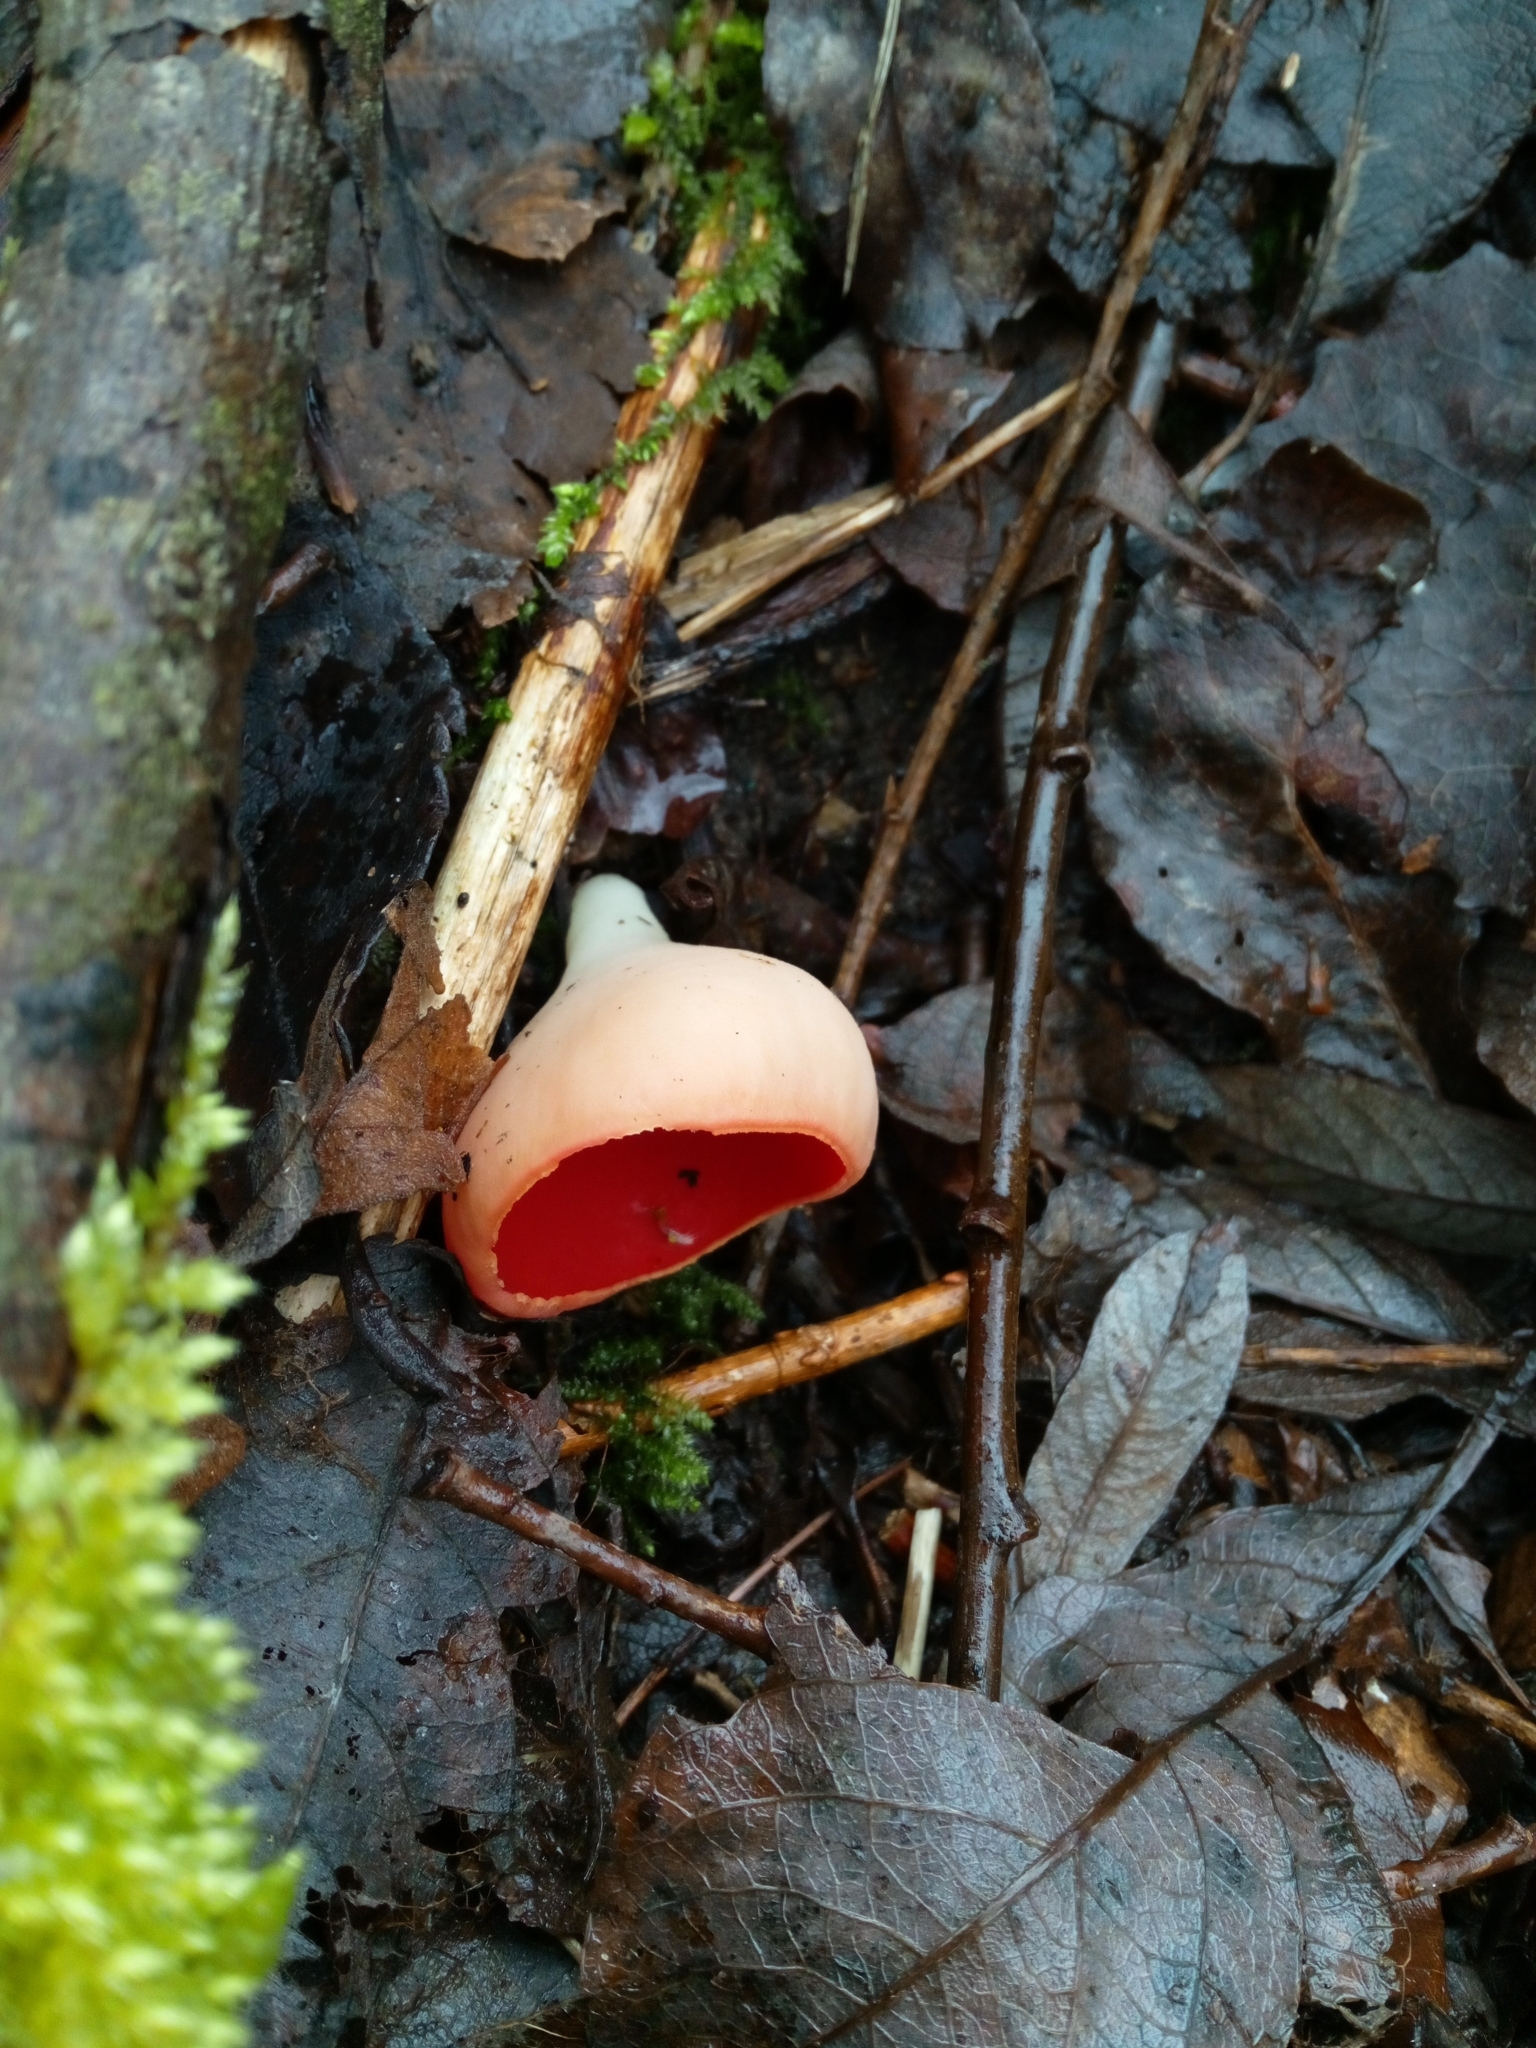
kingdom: Fungi
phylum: Ascomycota
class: Pezizomycetes
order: Pezizales
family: Sarcoscyphaceae
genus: Sarcoscypha
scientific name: Sarcoscypha
